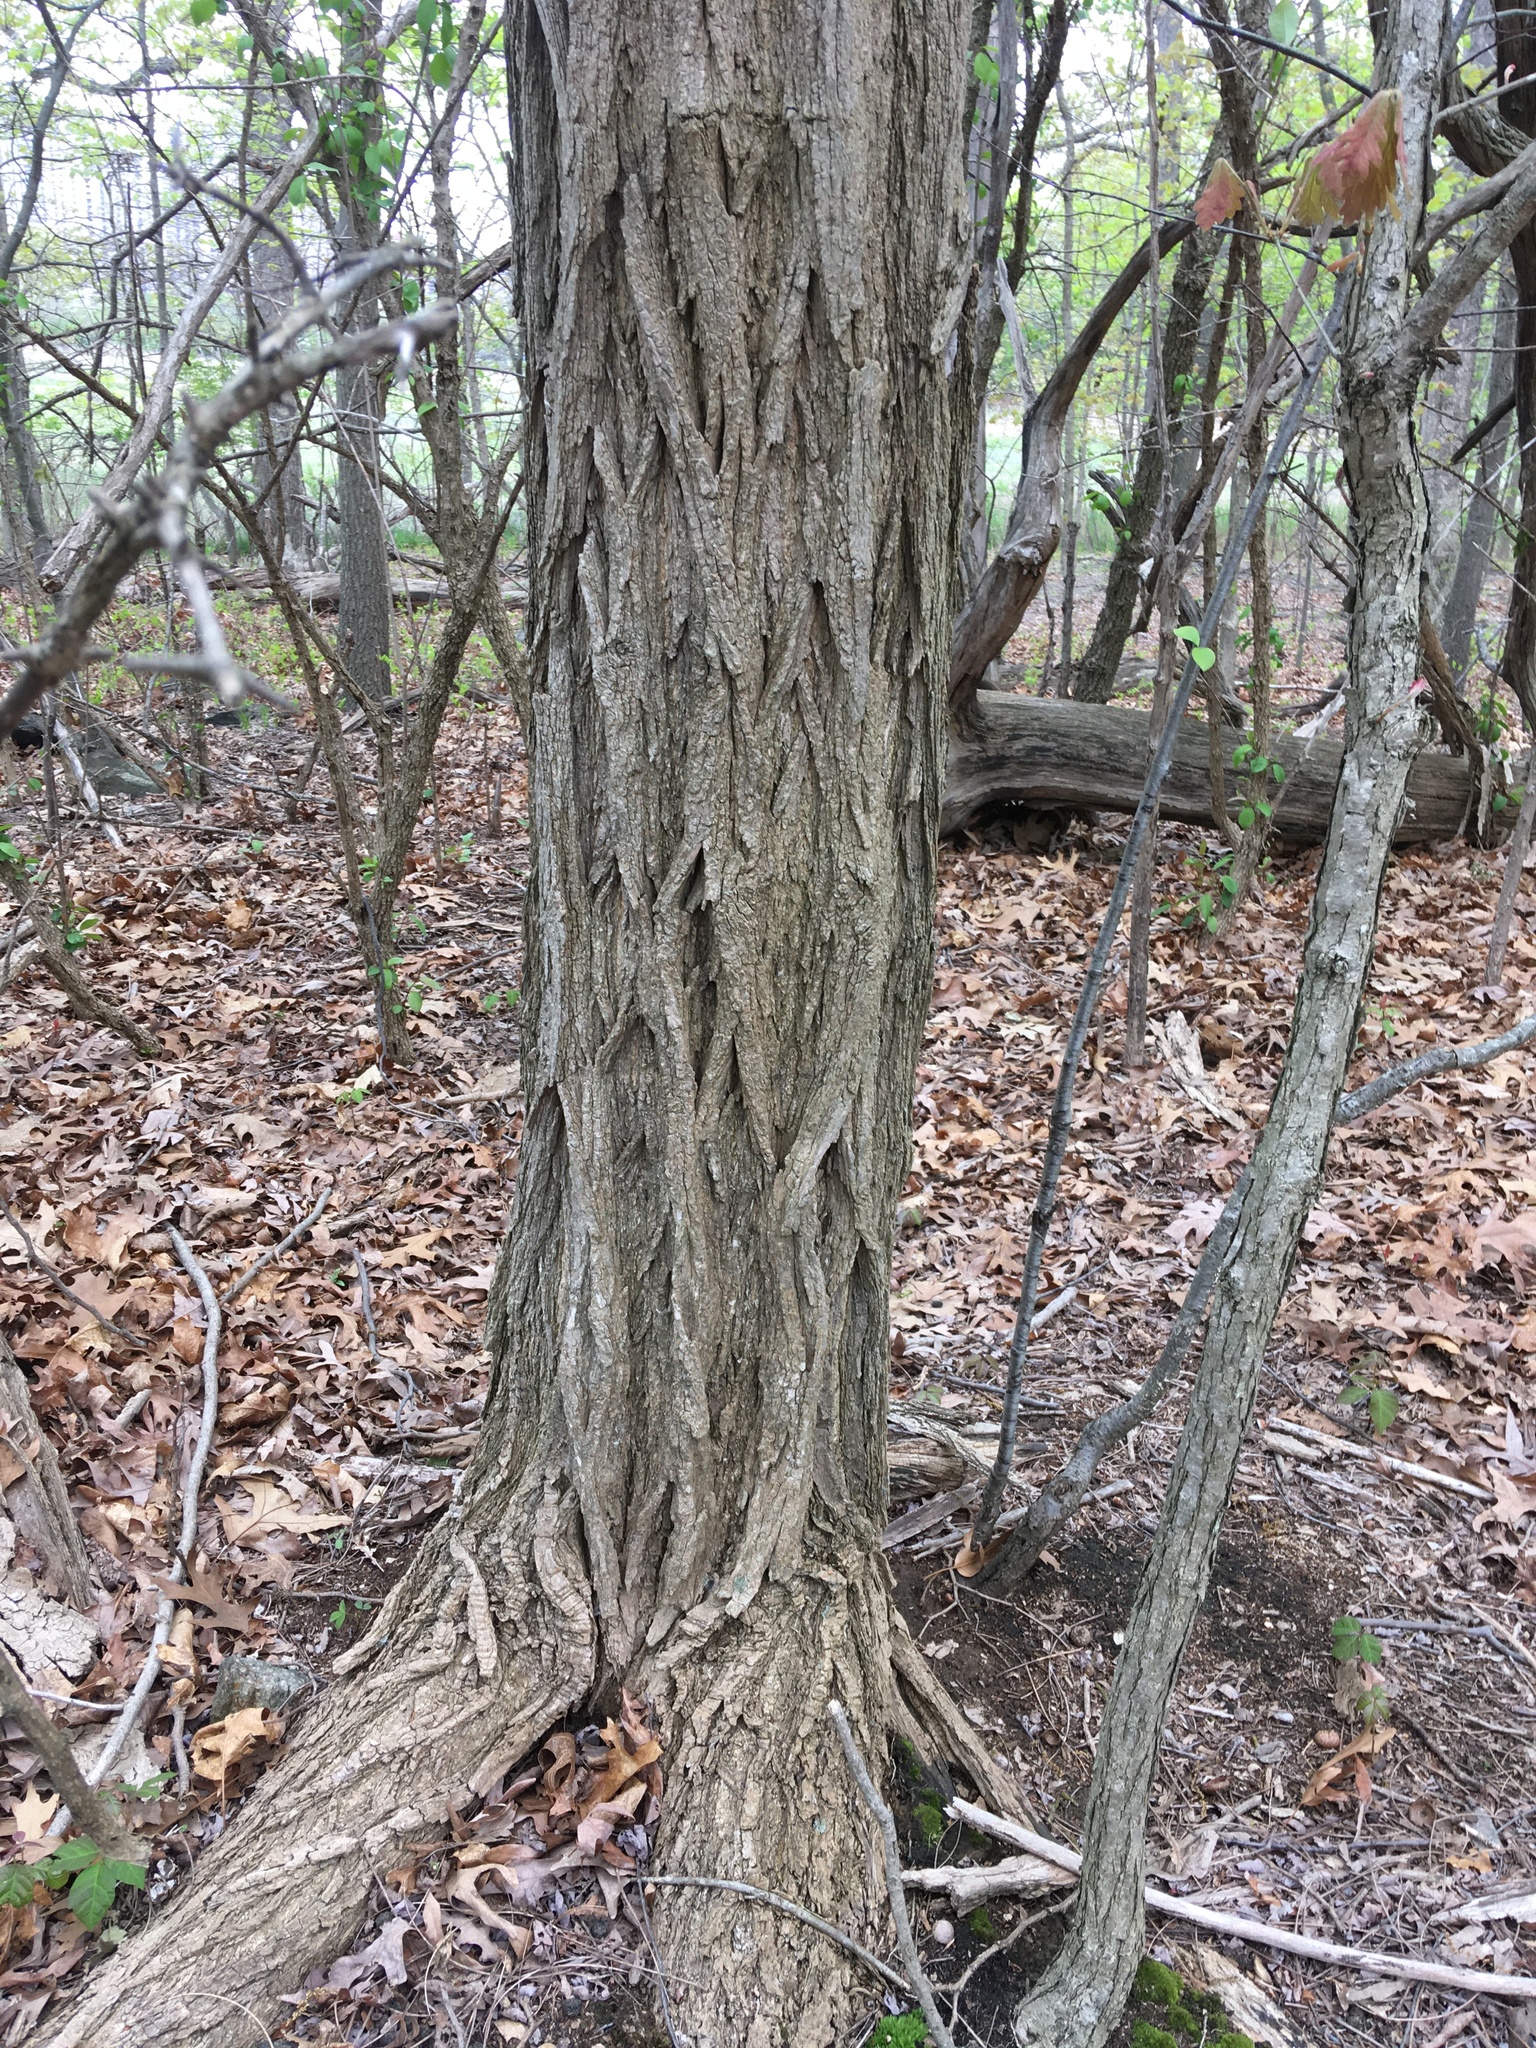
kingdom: Plantae
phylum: Tracheophyta
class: Magnoliopsida
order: Fabales
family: Fabaceae
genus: Robinia
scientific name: Robinia pseudoacacia
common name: Black locust
